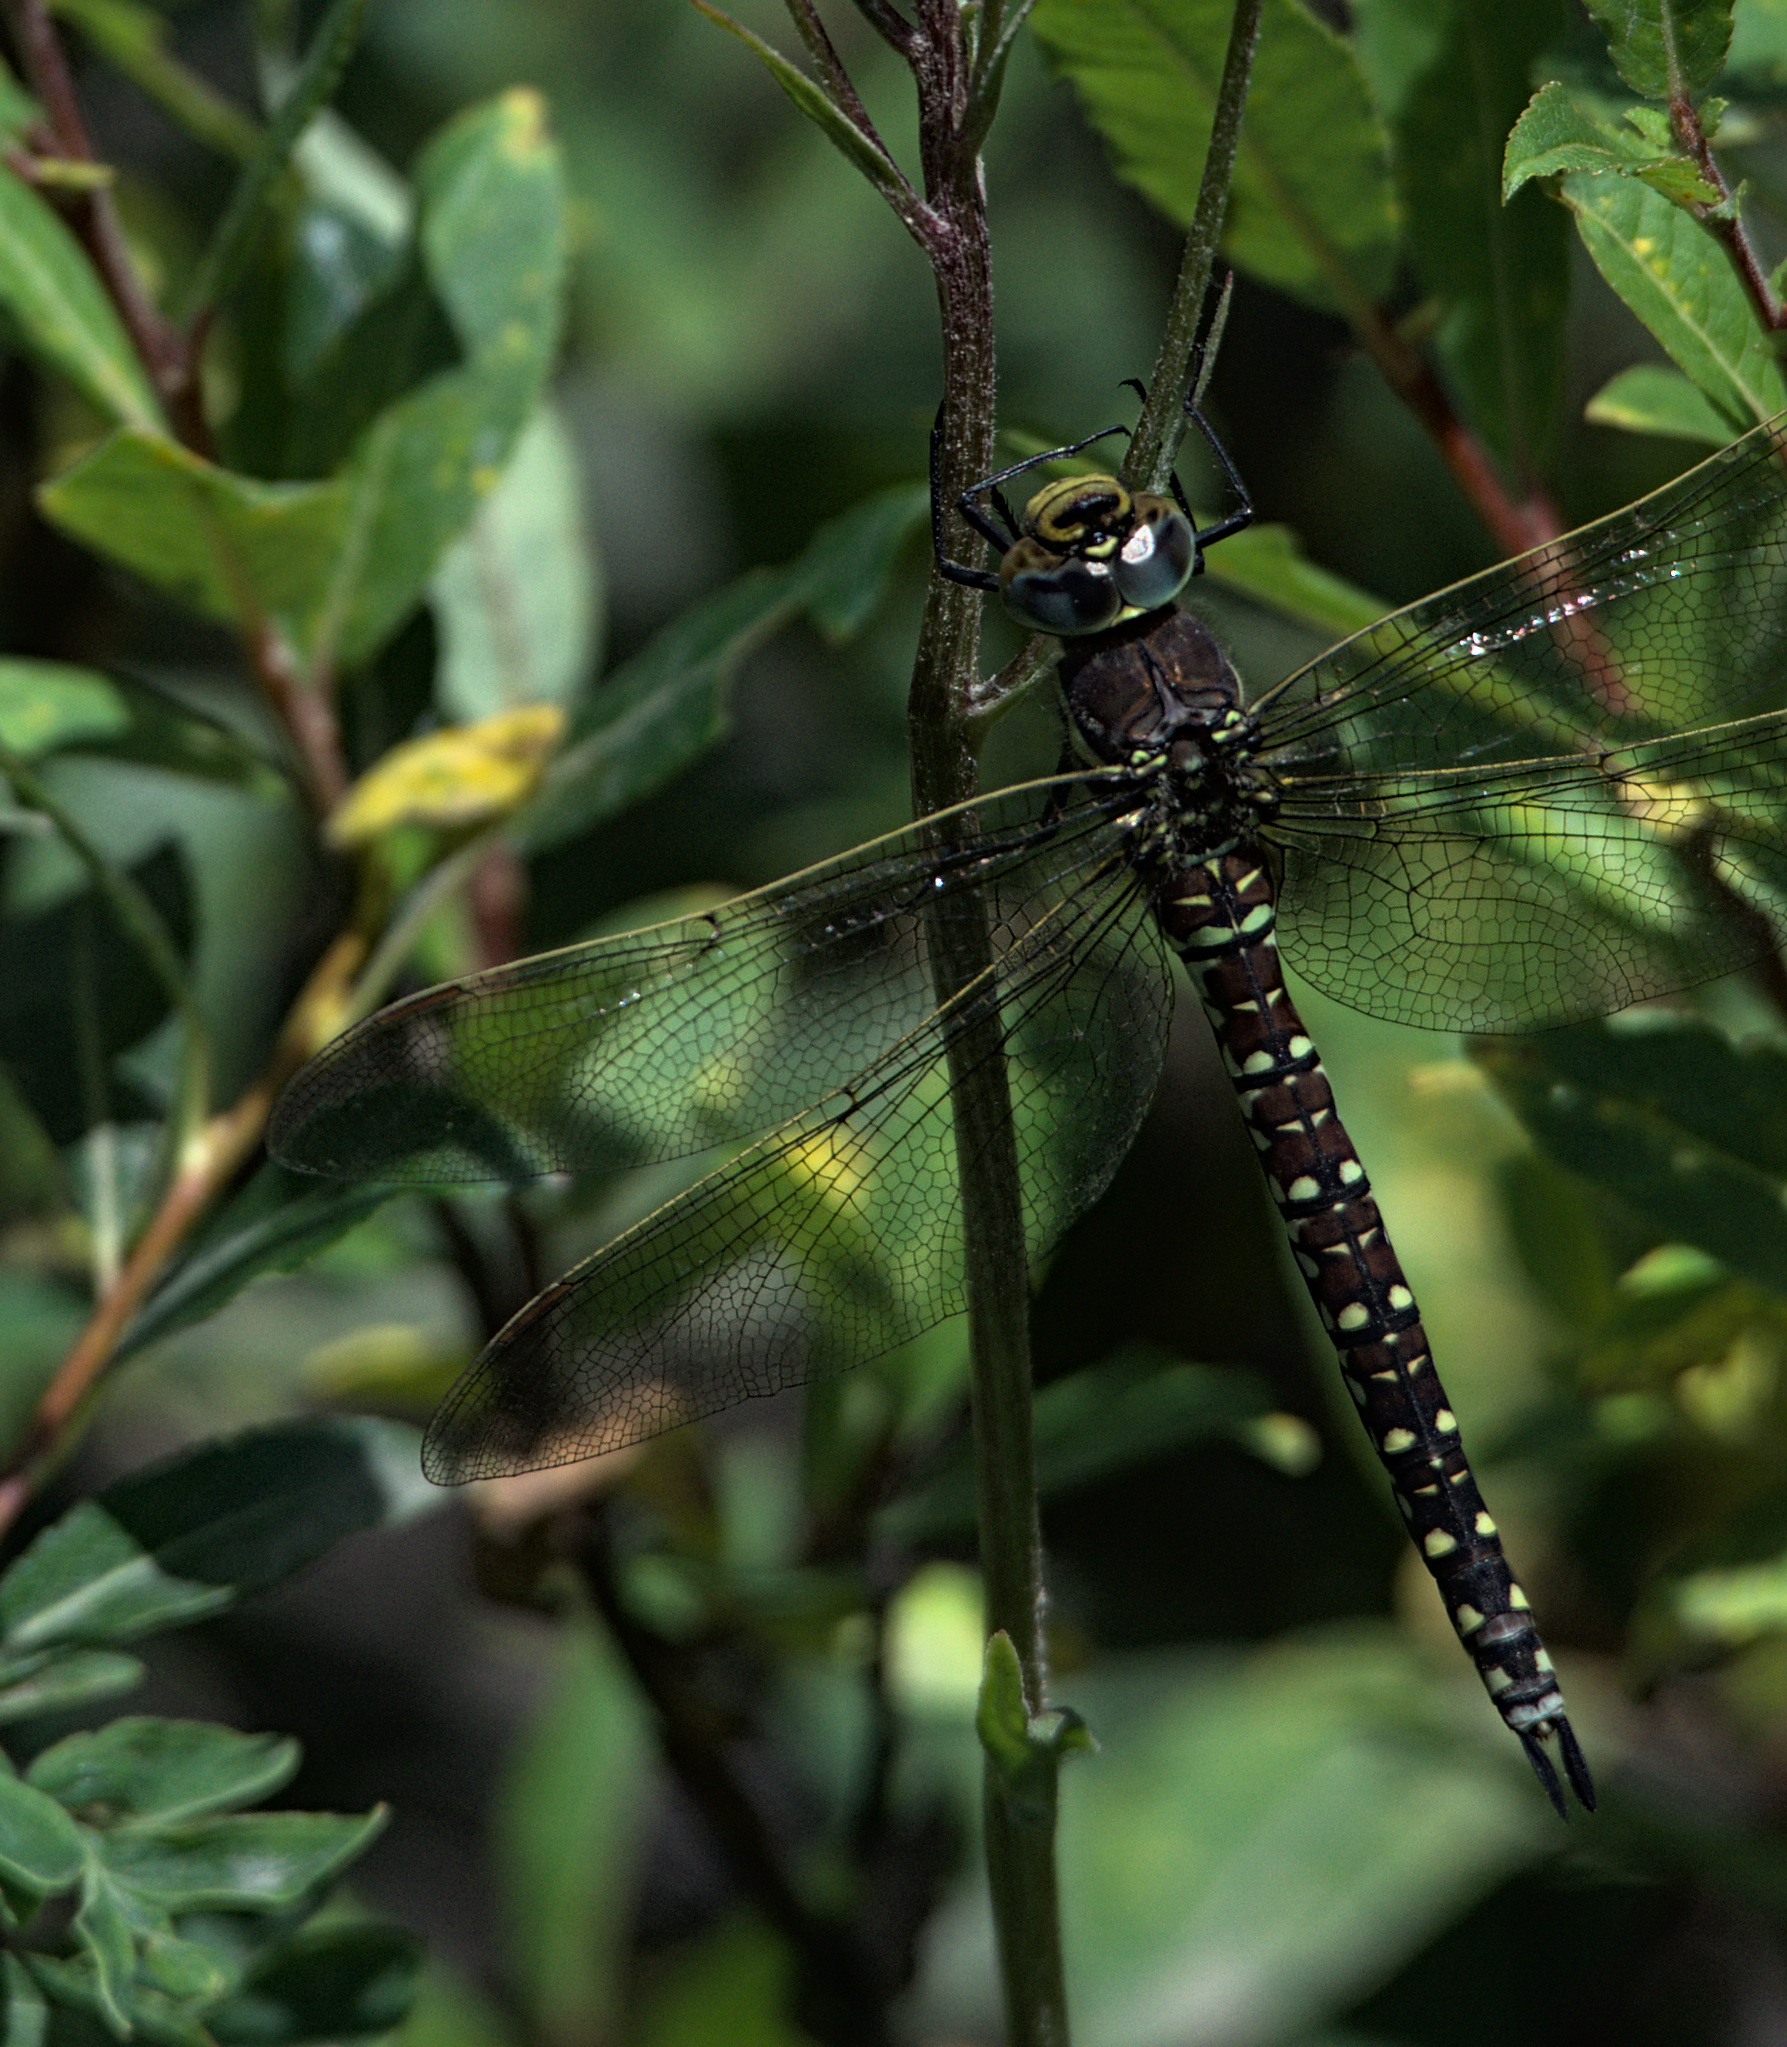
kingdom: Animalia
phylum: Arthropoda
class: Insecta
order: Odonata
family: Aeshnidae
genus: Aeshna
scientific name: Aeshna juncea
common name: Moorland hawker
